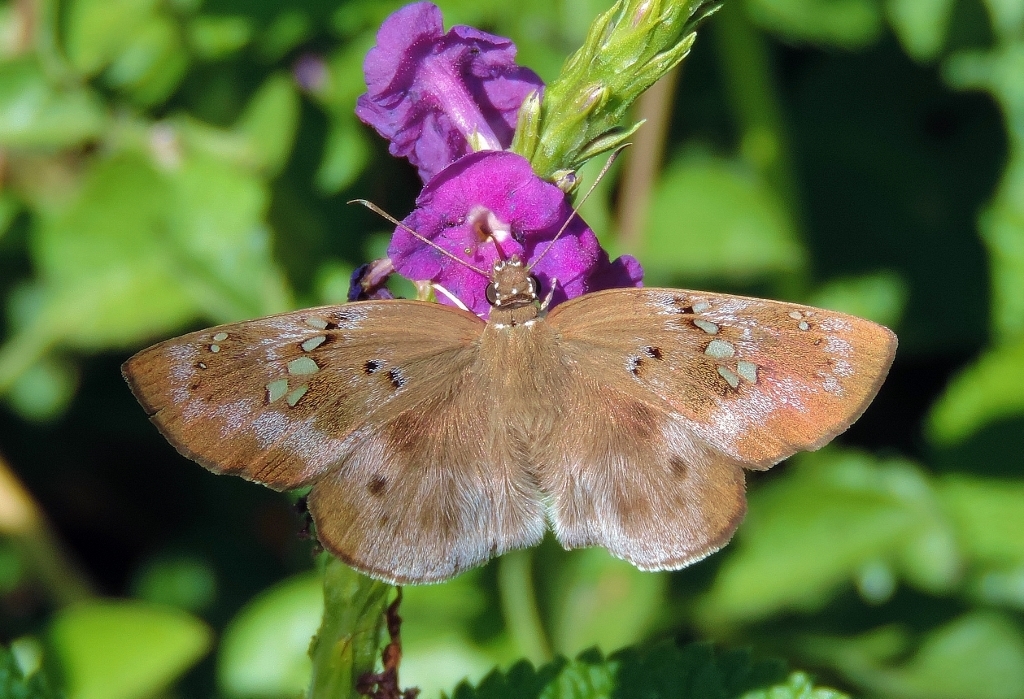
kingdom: Animalia
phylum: Arthropoda
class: Insecta
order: Lepidoptera
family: Hesperiidae
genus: Tagiades
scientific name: Tagiades flesus
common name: Clouded flat
